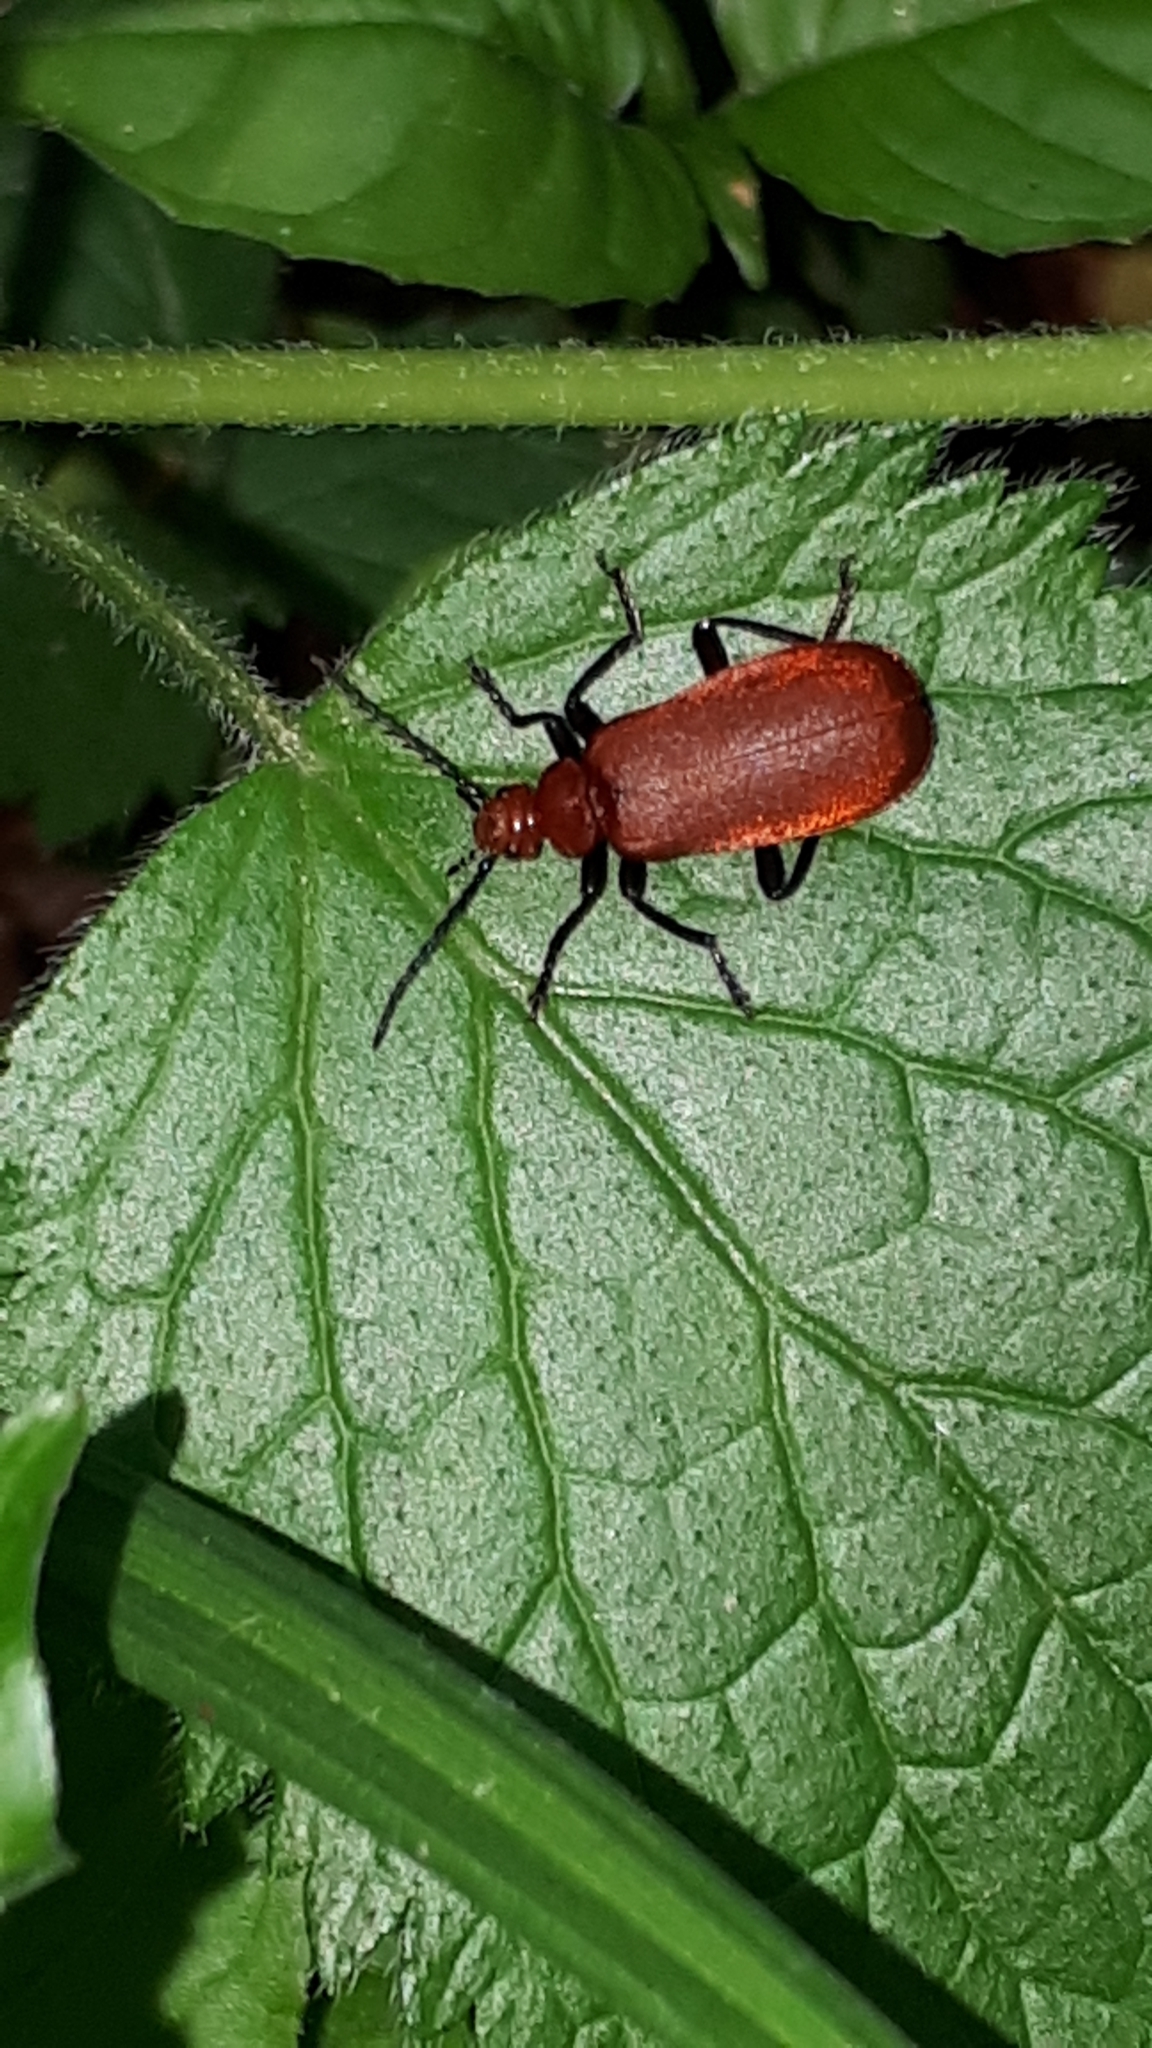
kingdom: Animalia
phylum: Arthropoda
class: Insecta
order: Coleoptera
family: Pyrochroidae
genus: Pyrochroa
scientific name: Pyrochroa serraticornis
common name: Red-headed cardinal beetle
